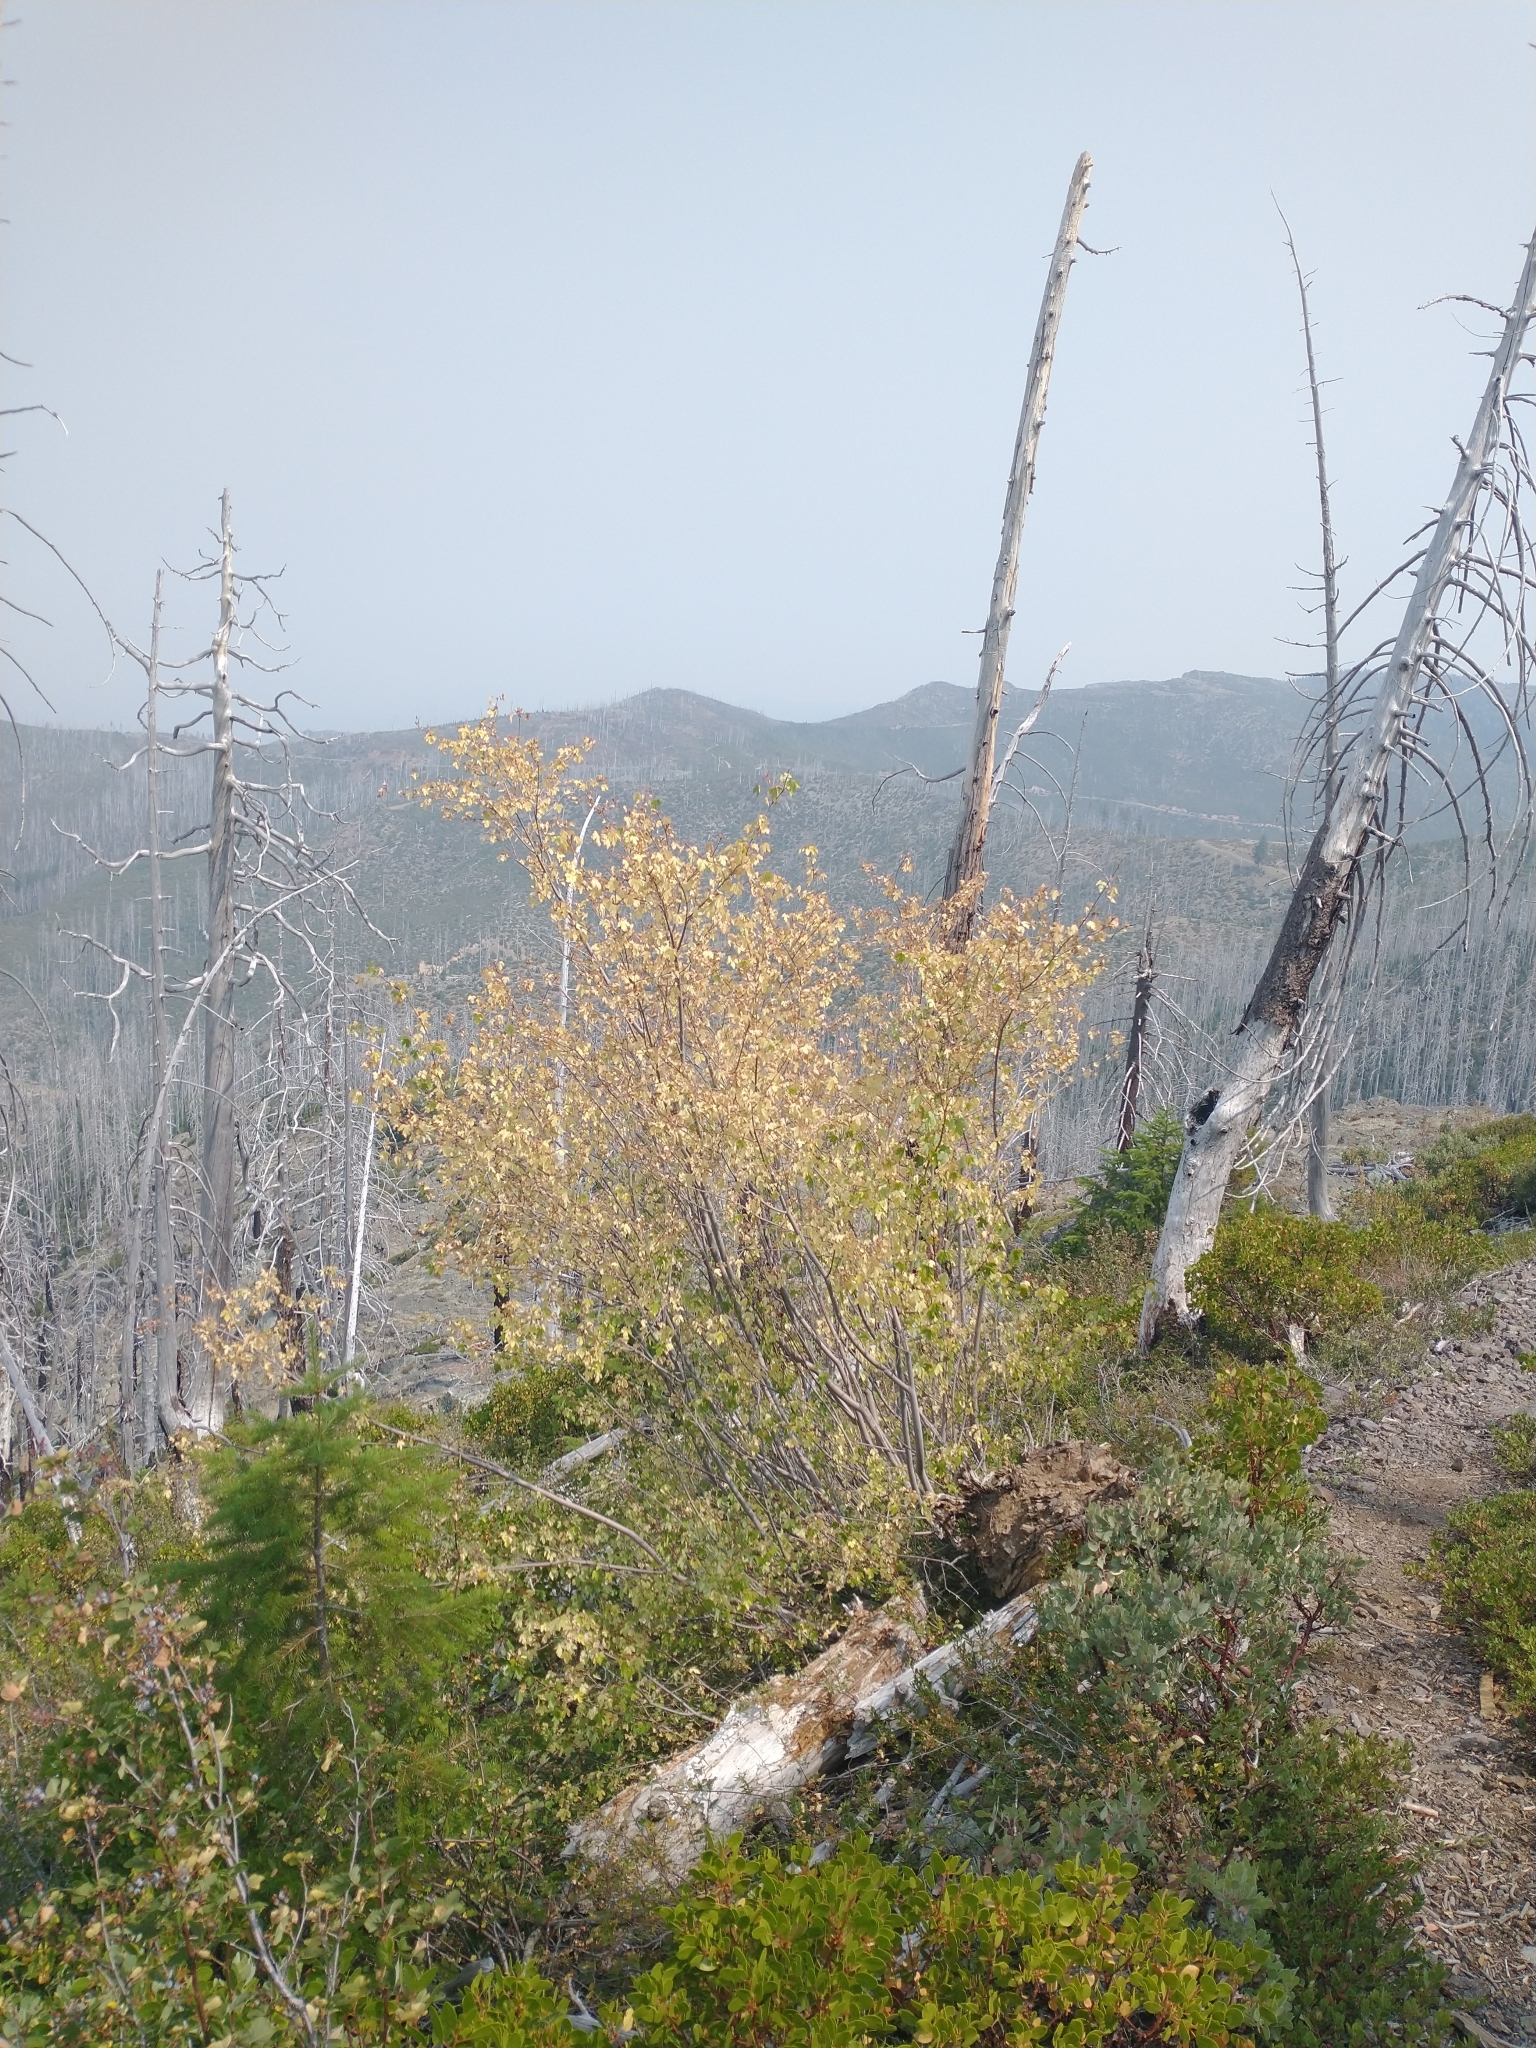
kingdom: Plantae
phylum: Tracheophyta
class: Magnoliopsida
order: Sapindales
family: Sapindaceae
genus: Acer
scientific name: Acer glabrum
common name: Rocky mountain maple
